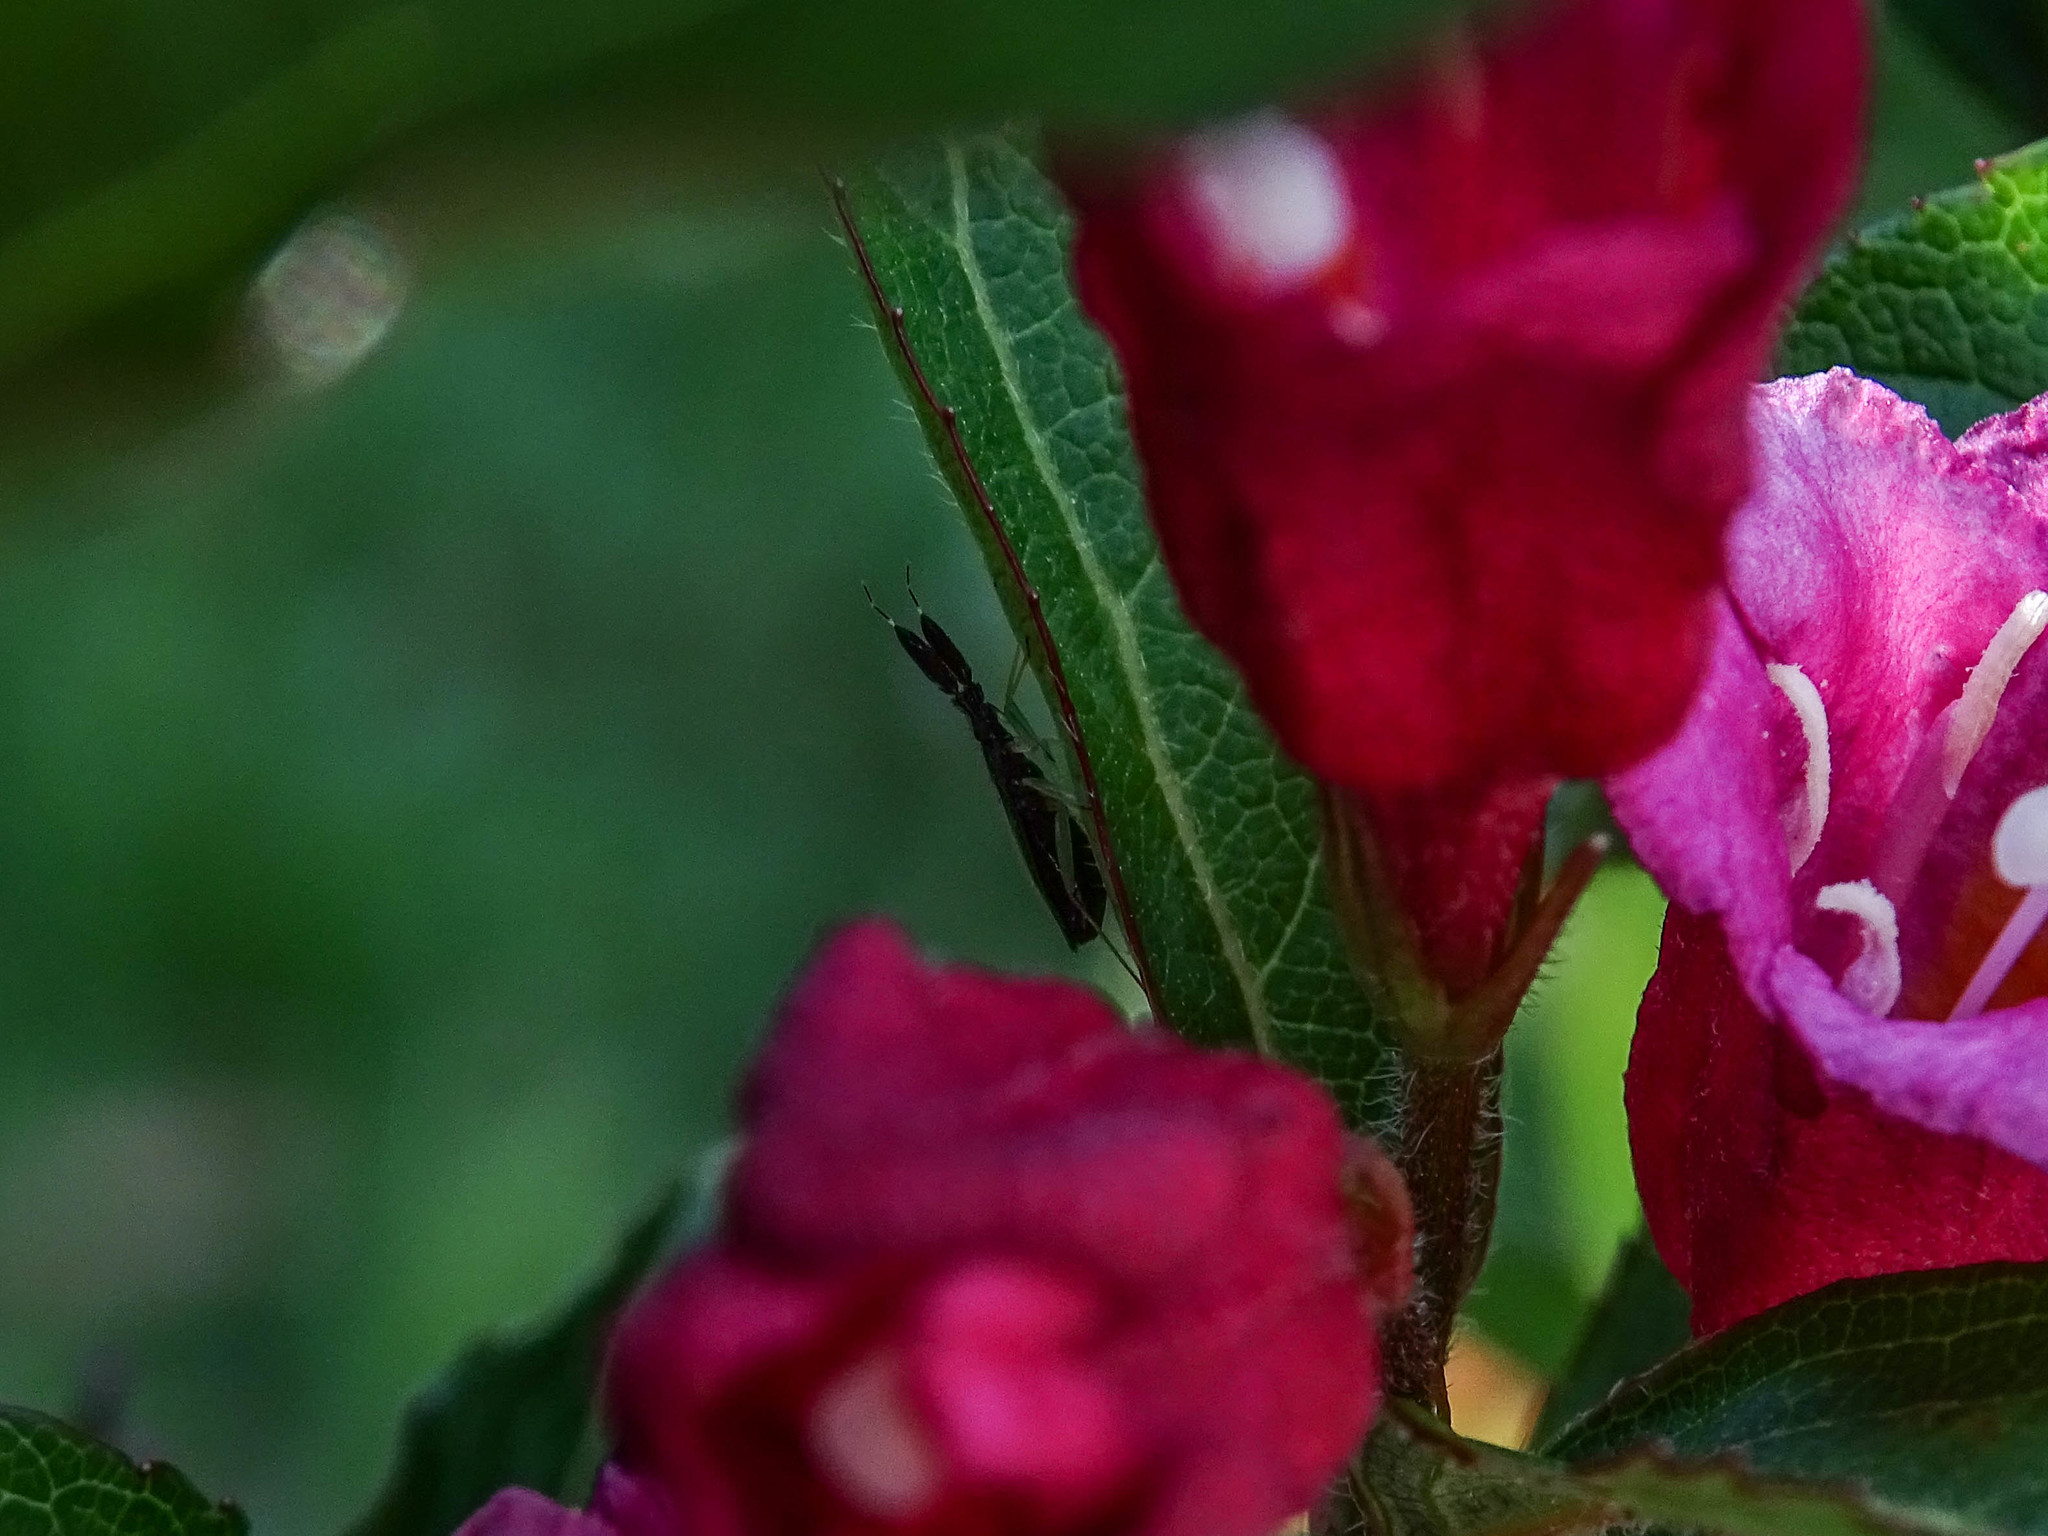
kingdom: Animalia
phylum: Arthropoda
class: Insecta
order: Hemiptera
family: Miridae
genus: Heterotoma
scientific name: Heterotoma planicornis
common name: Plant bug
